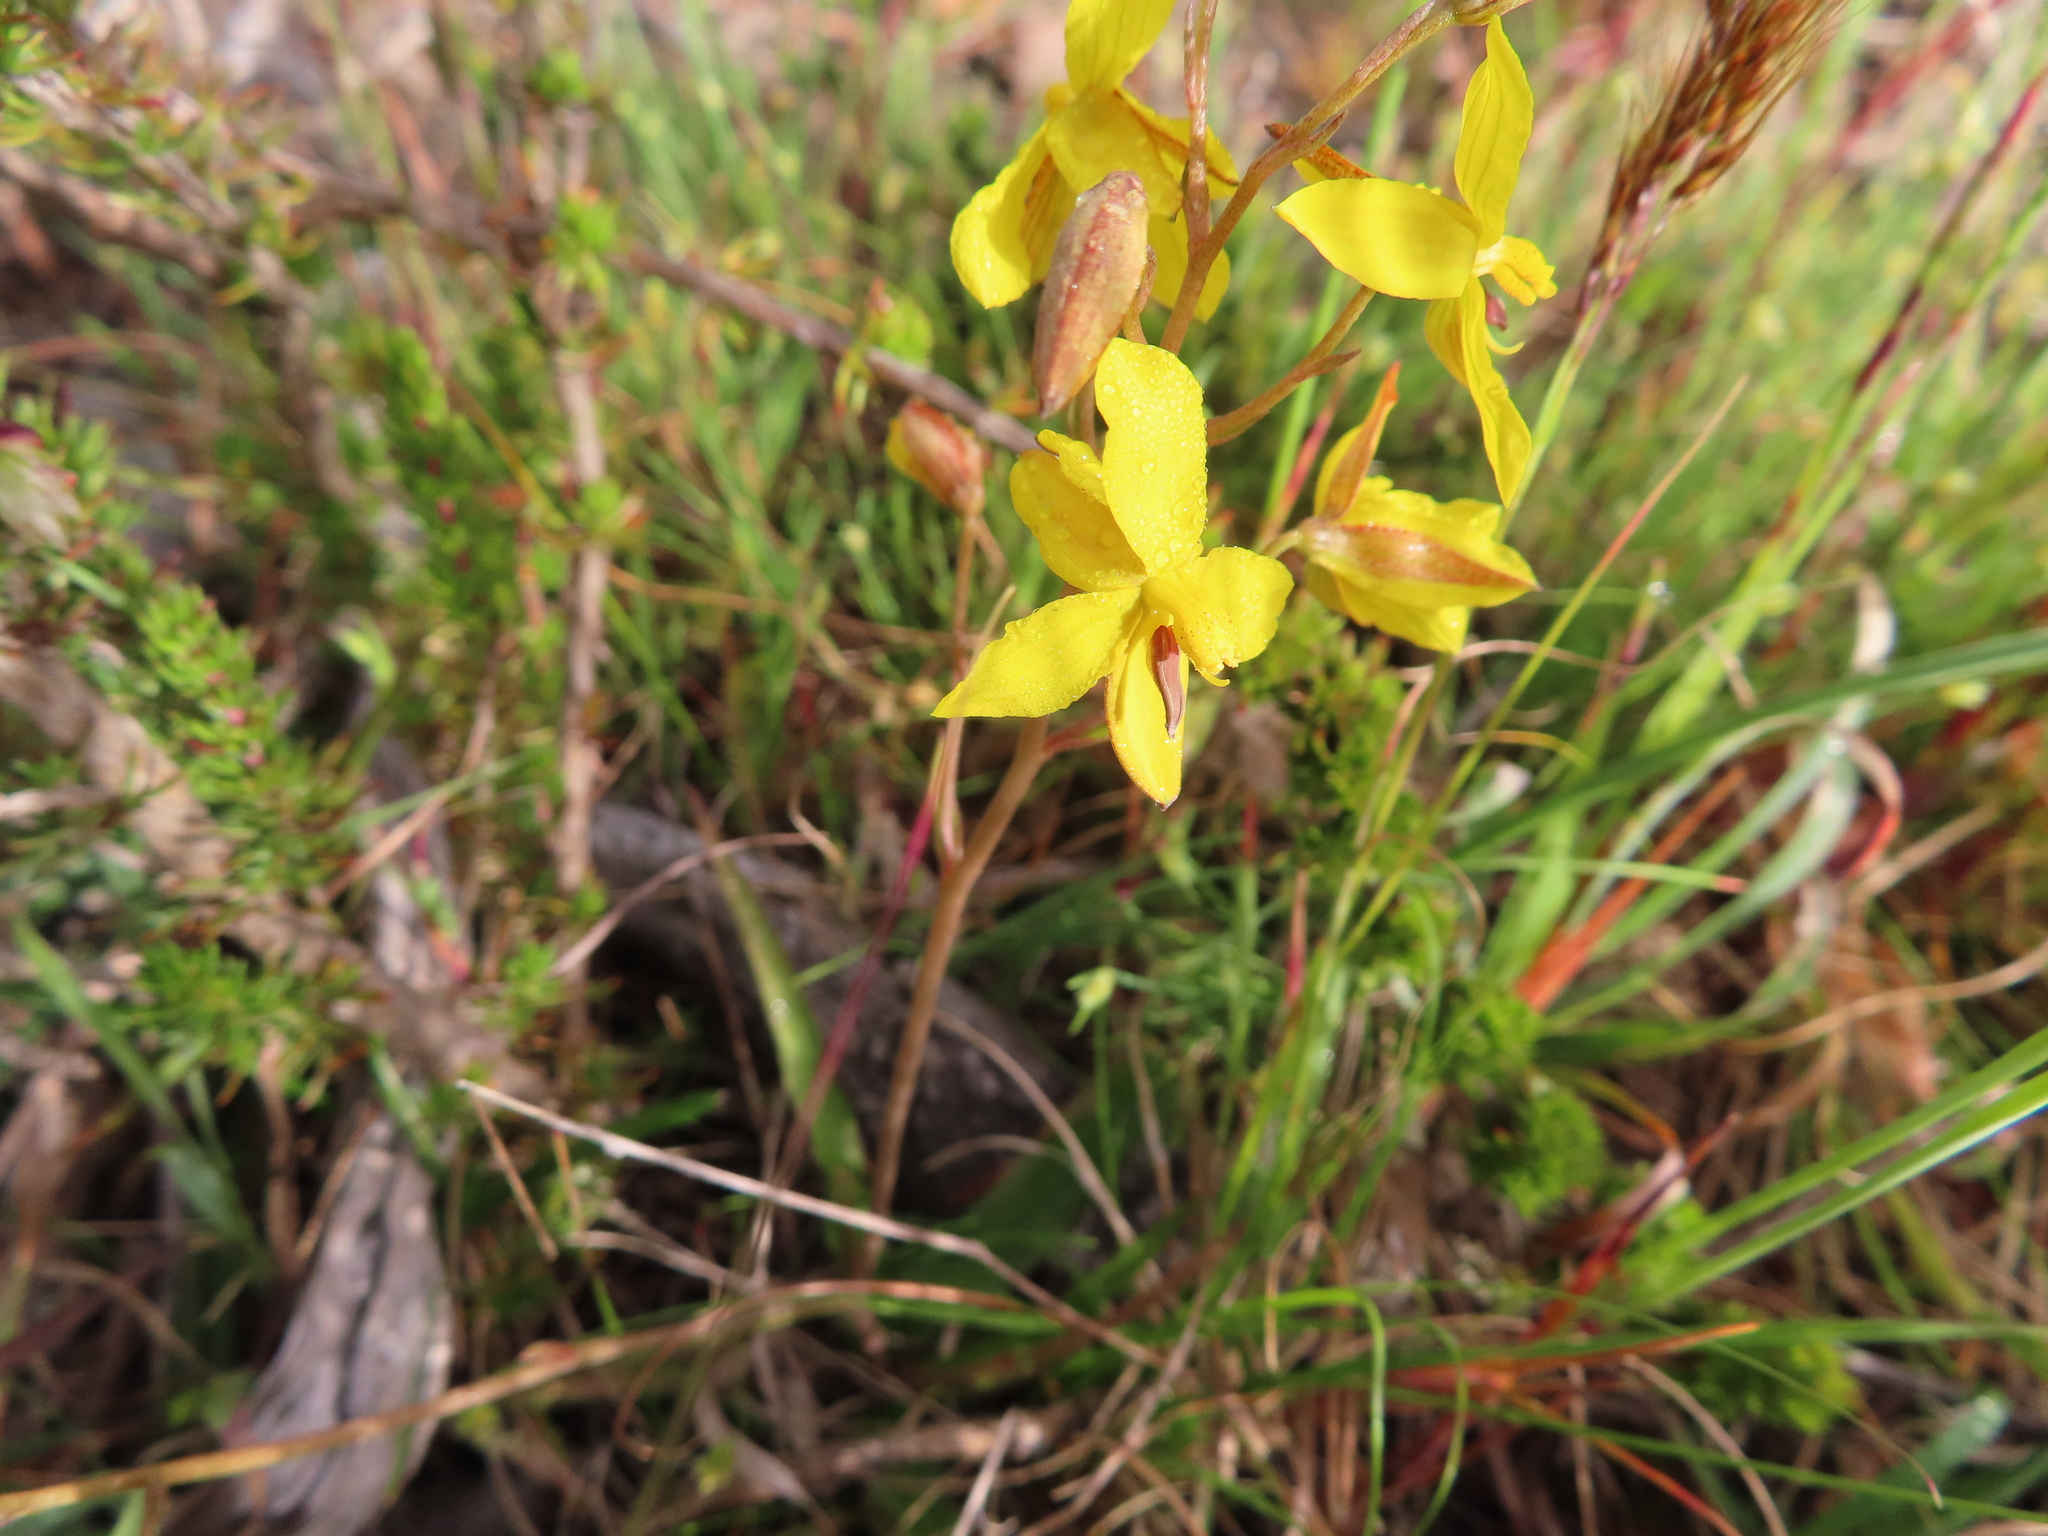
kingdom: Plantae
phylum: Tracheophyta
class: Liliopsida
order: Asparagales
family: Tecophilaeaceae
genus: Cyanella
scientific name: Cyanella lutea
